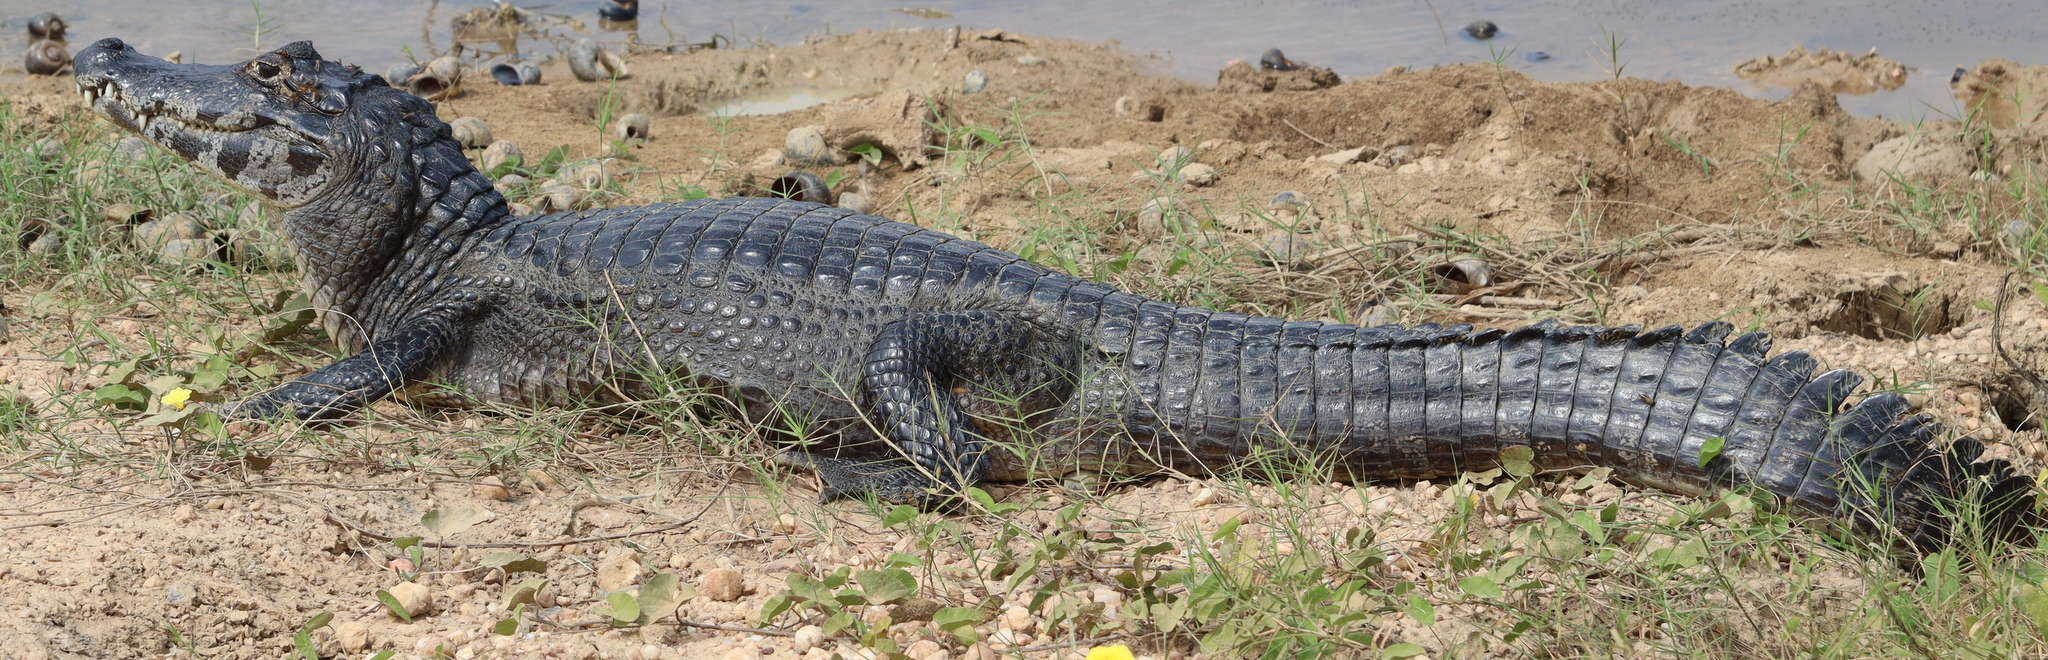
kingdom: Animalia
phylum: Chordata
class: Crocodylia
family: Alligatoridae
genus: Caiman
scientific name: Caiman yacare
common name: Yacare caiman
